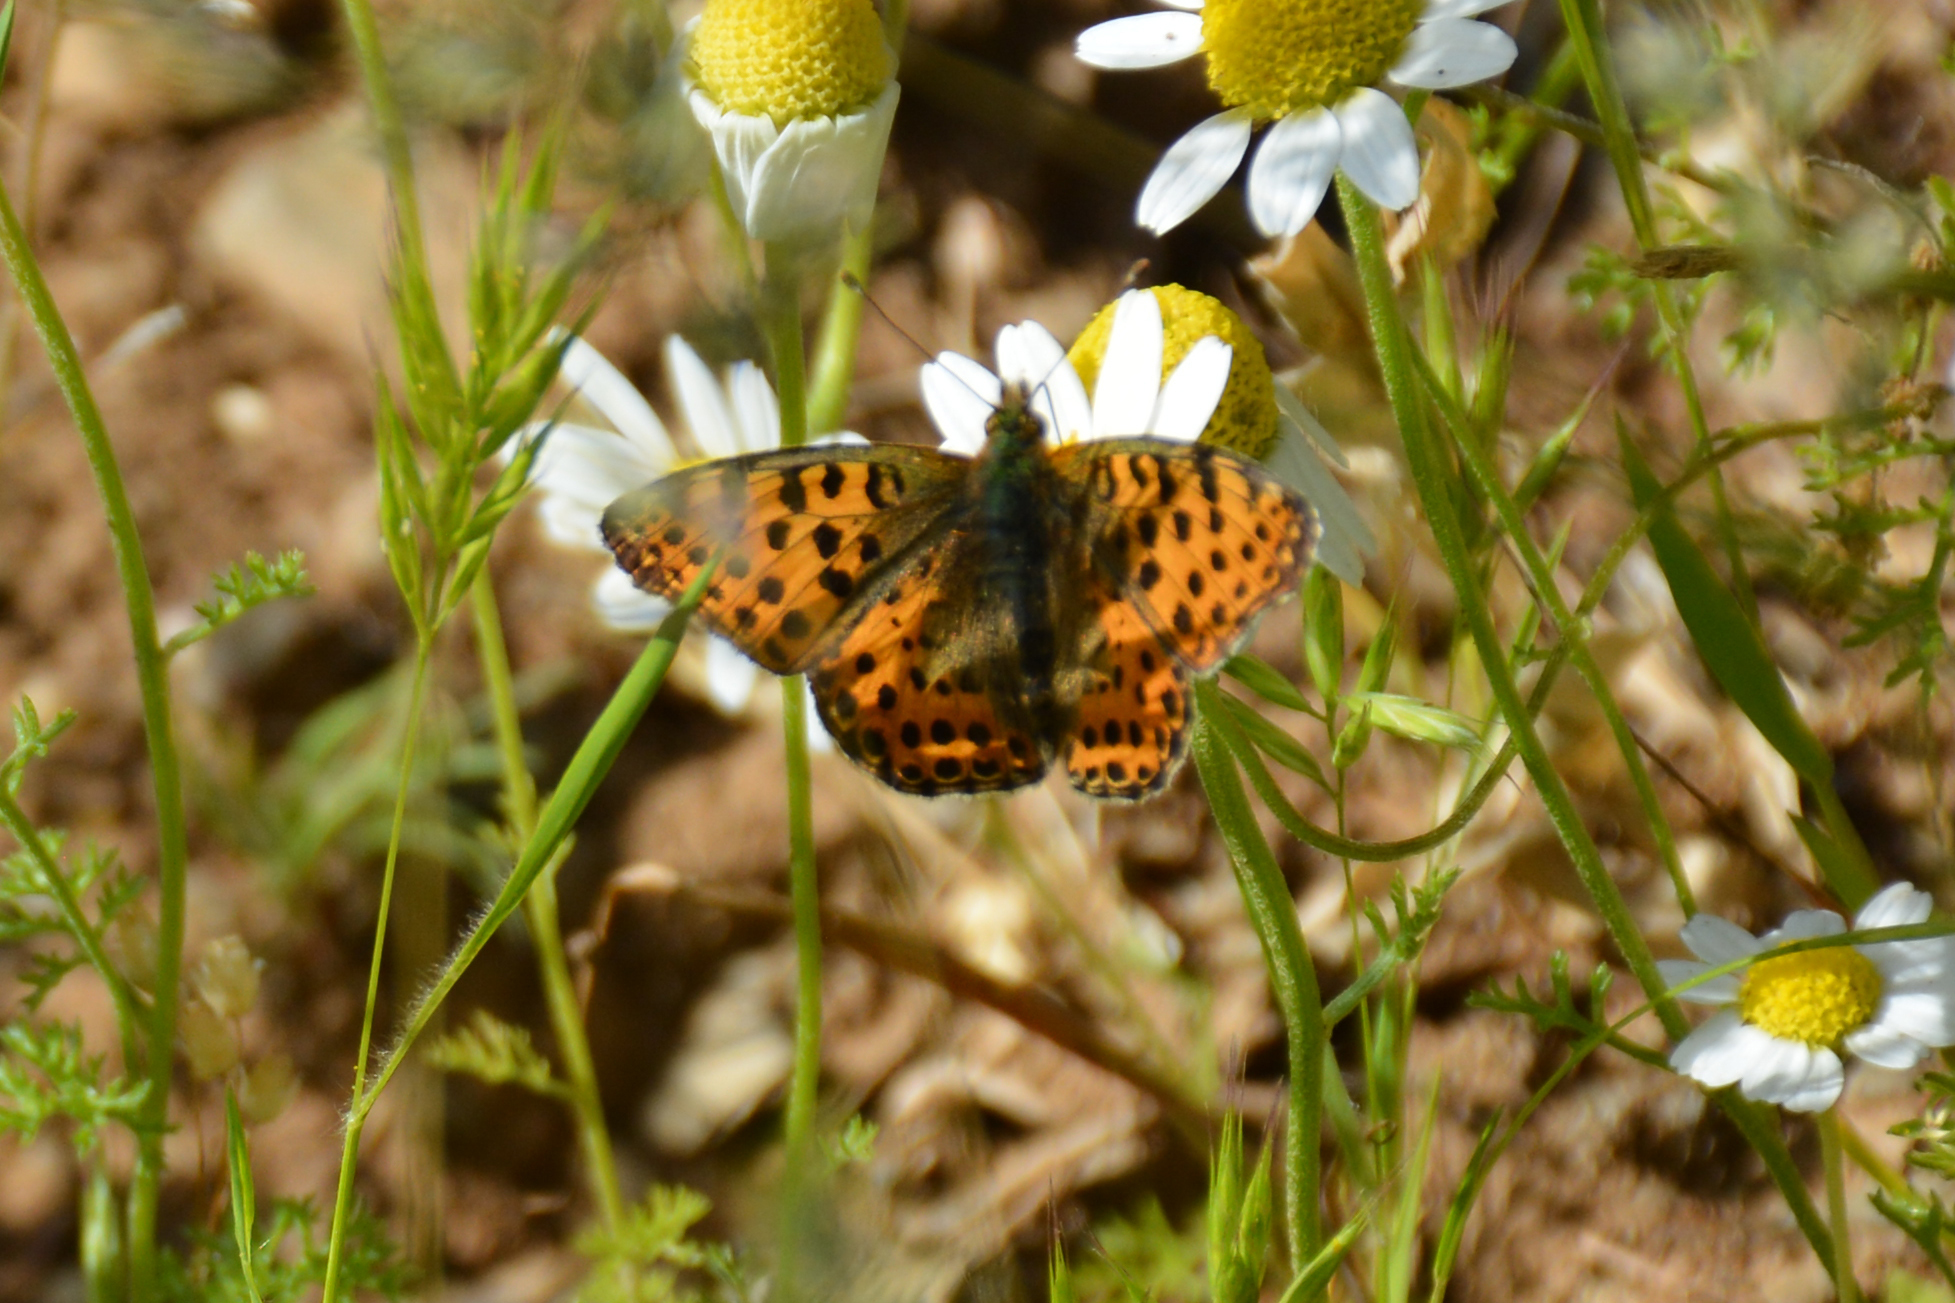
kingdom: Animalia
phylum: Arthropoda
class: Insecta
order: Lepidoptera
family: Nymphalidae
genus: Issoria
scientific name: Issoria lathonia
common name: Queen of spain fritillary
